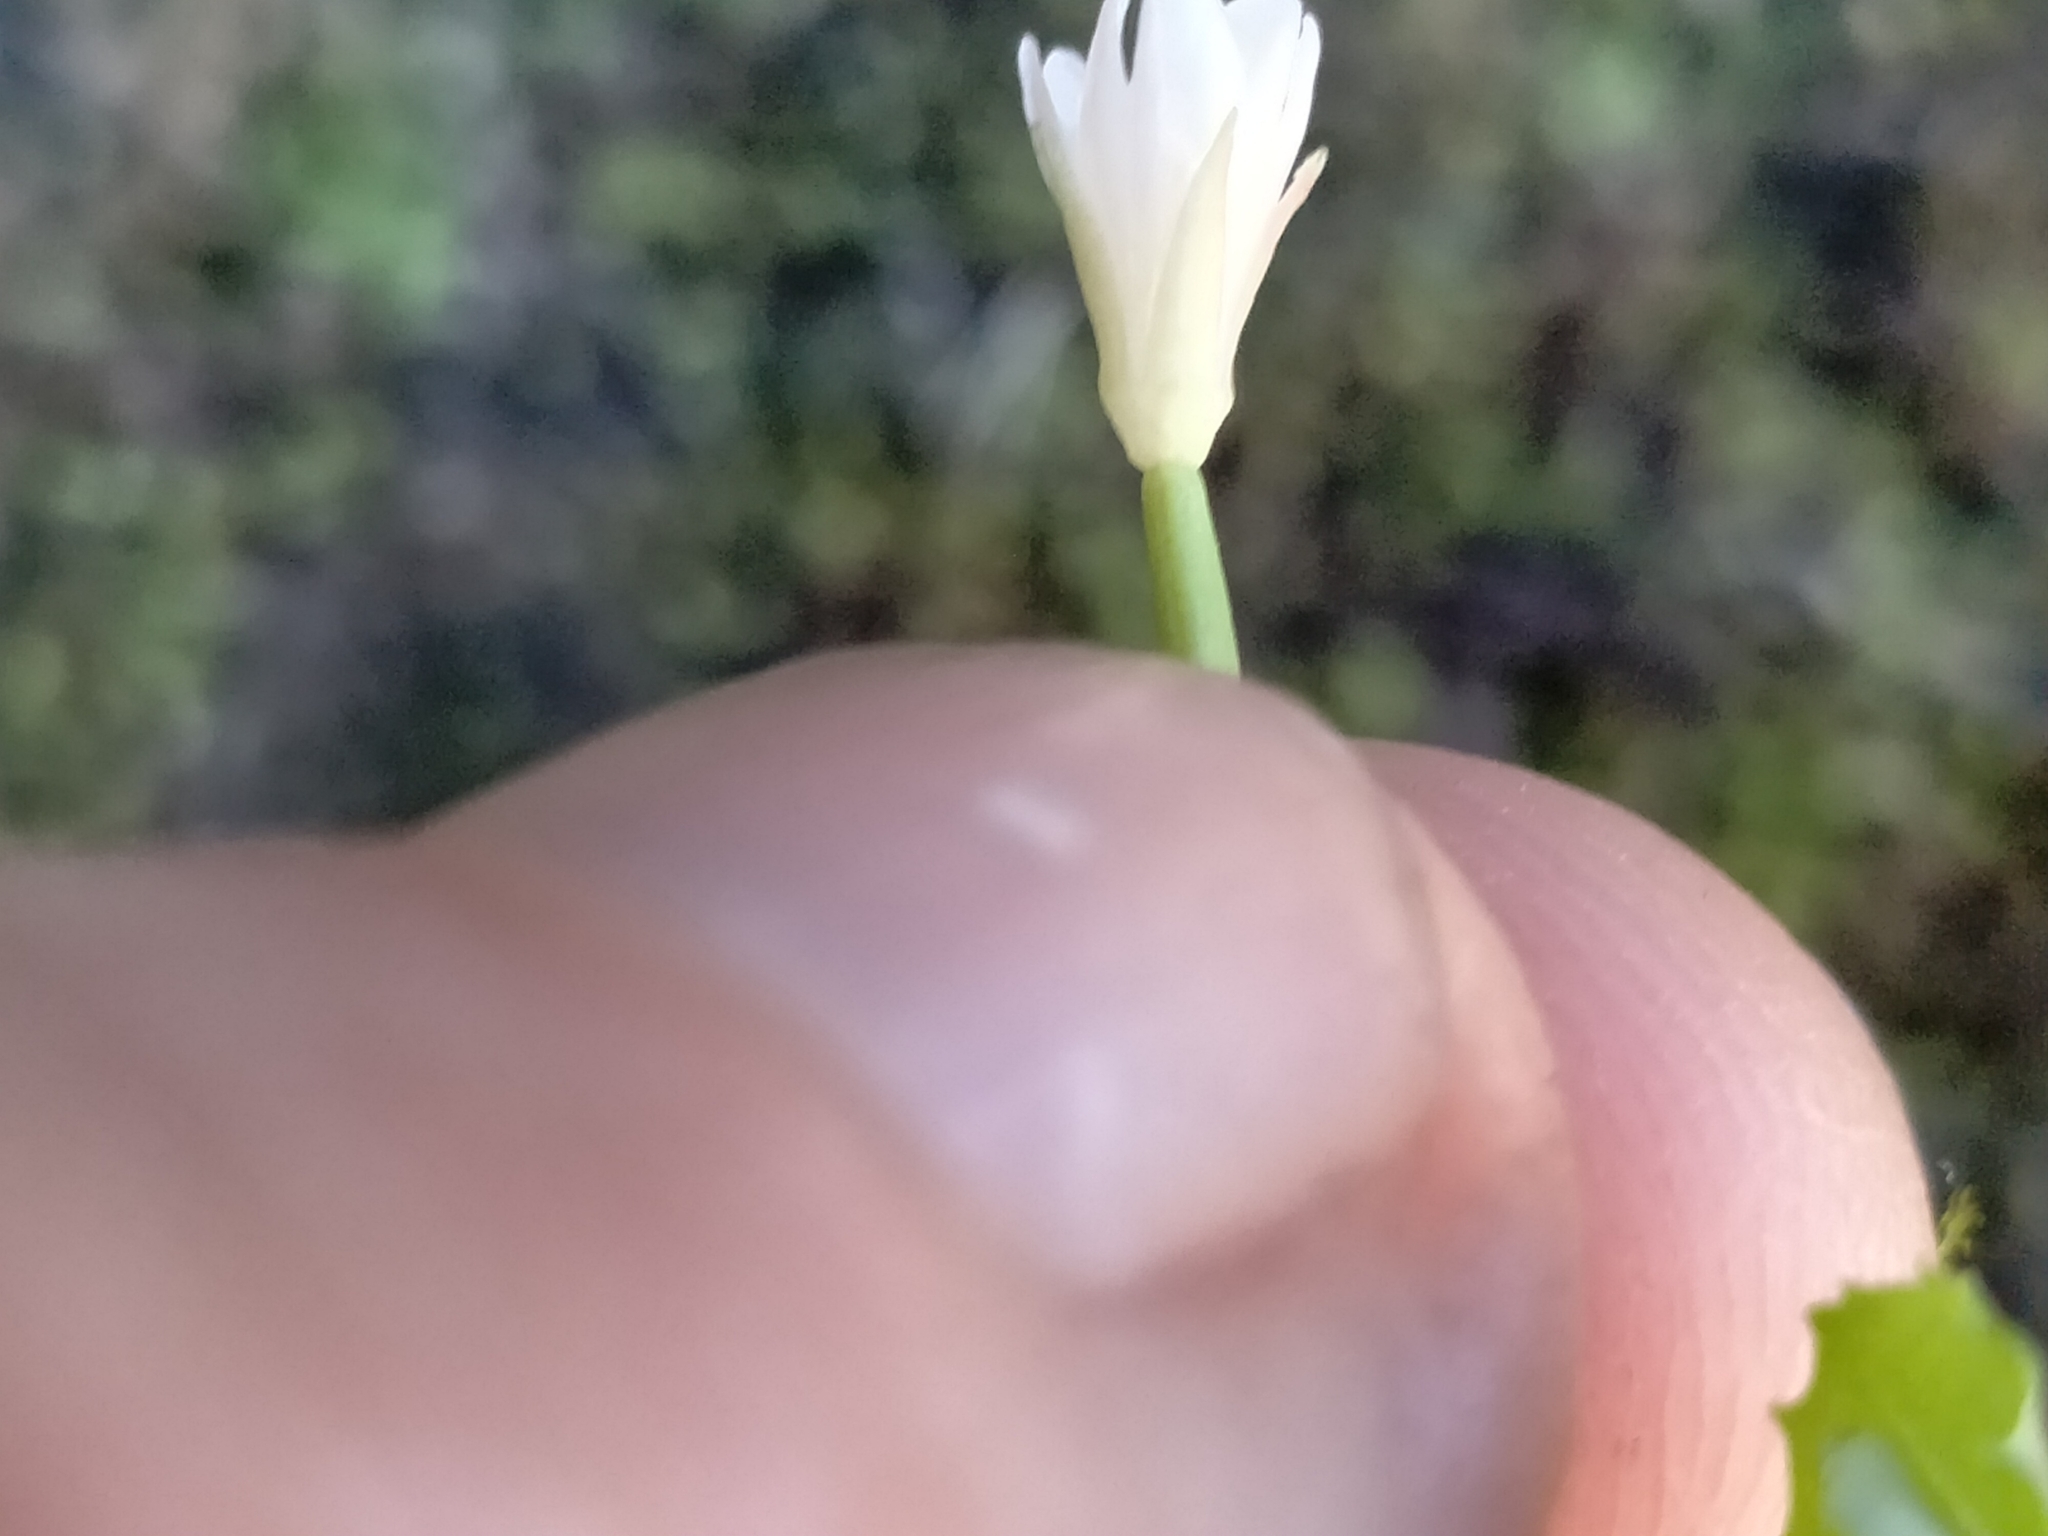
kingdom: Plantae
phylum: Tracheophyta
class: Magnoliopsida
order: Myrtales
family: Onagraceae
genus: Epilobium
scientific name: Epilobium pedunculare
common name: Rockery willowherb
